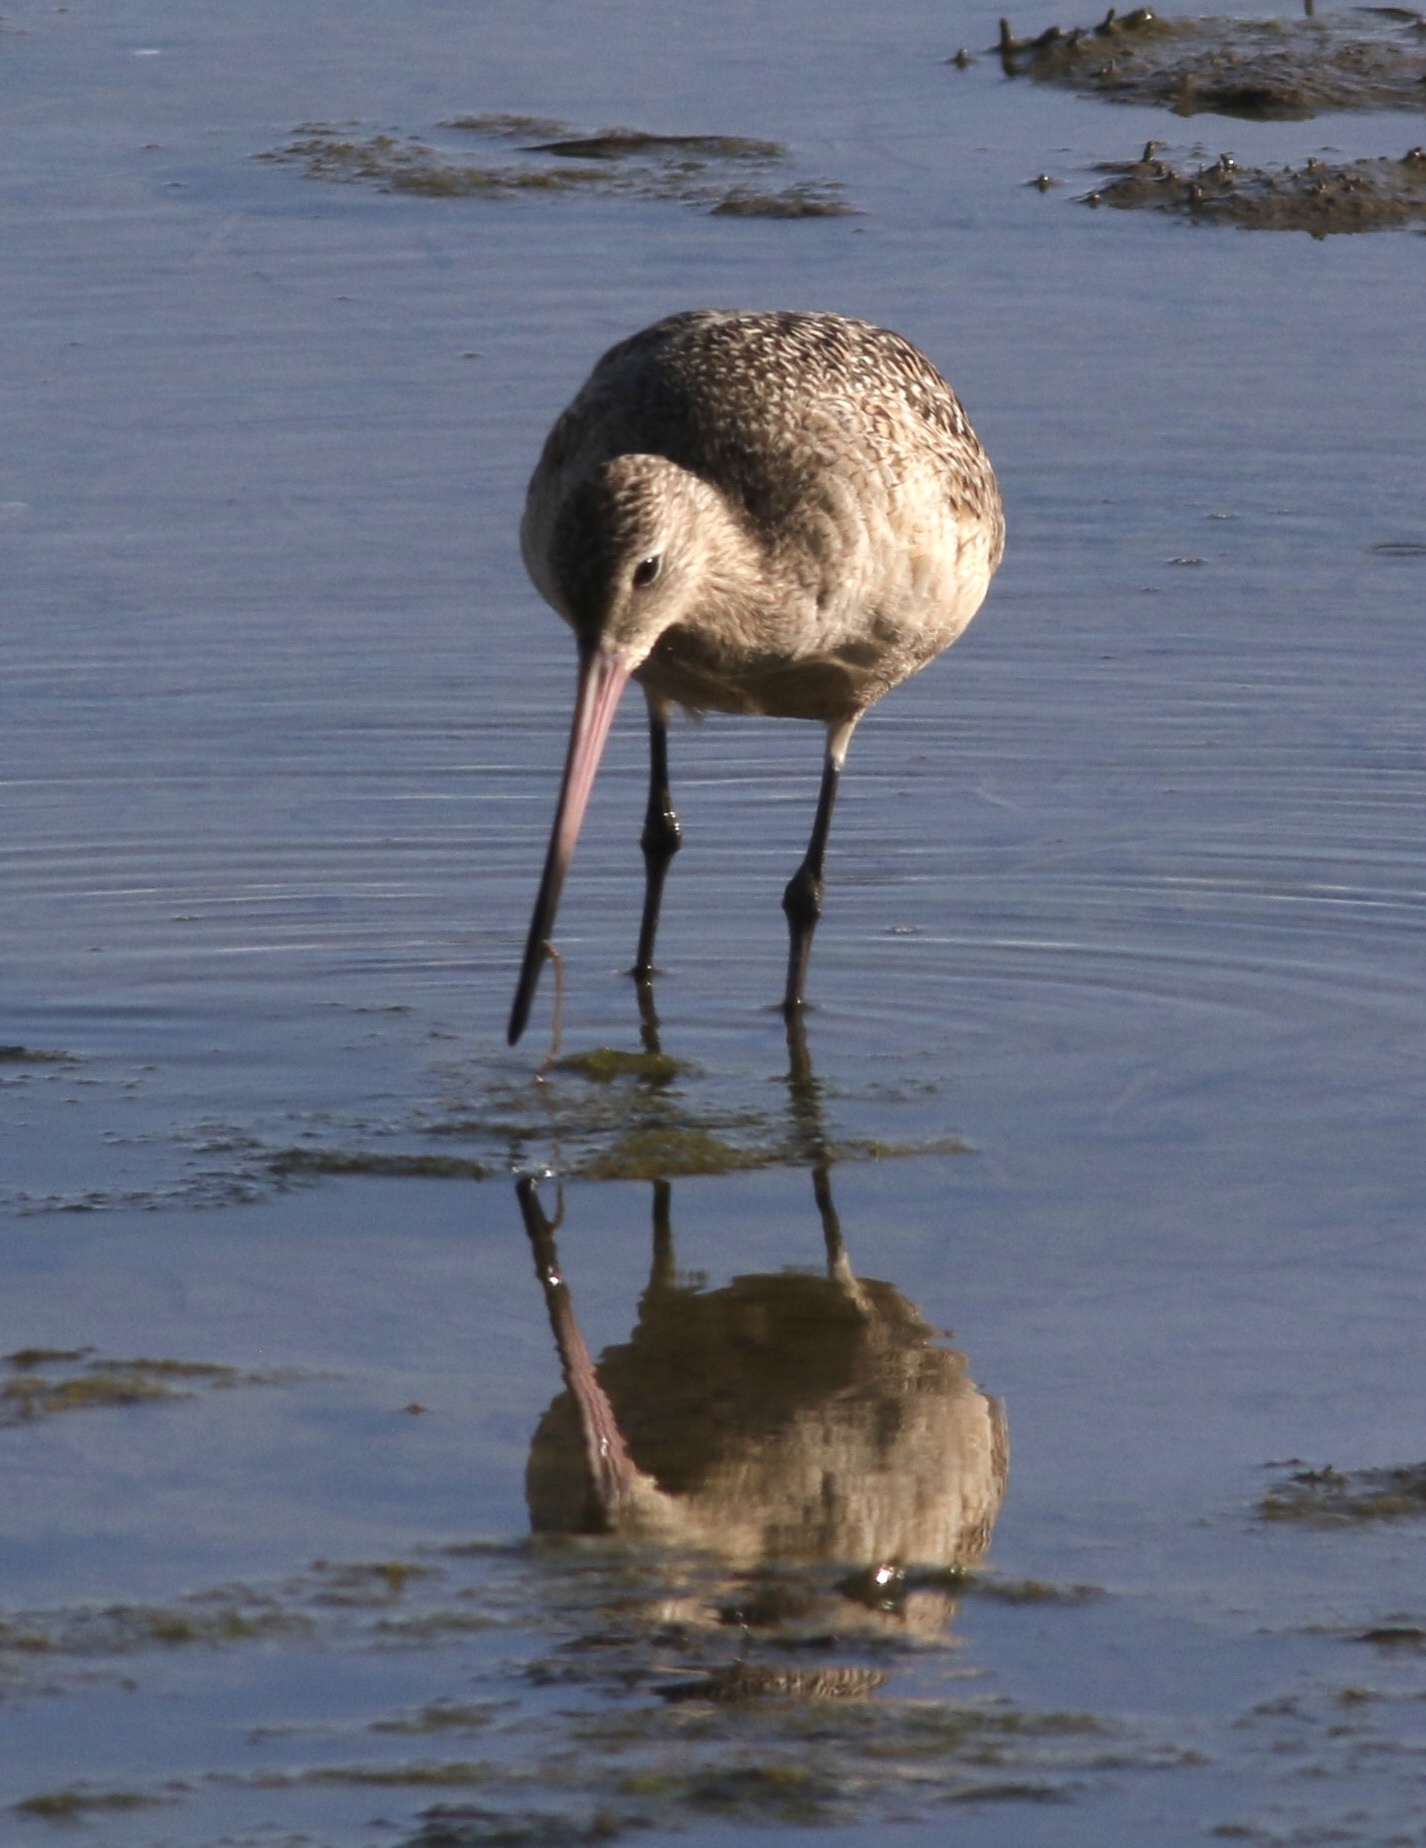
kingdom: Animalia
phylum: Chordata
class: Aves
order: Charadriiformes
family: Scolopacidae
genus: Limosa
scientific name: Limosa fedoa
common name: Marbled godwit
